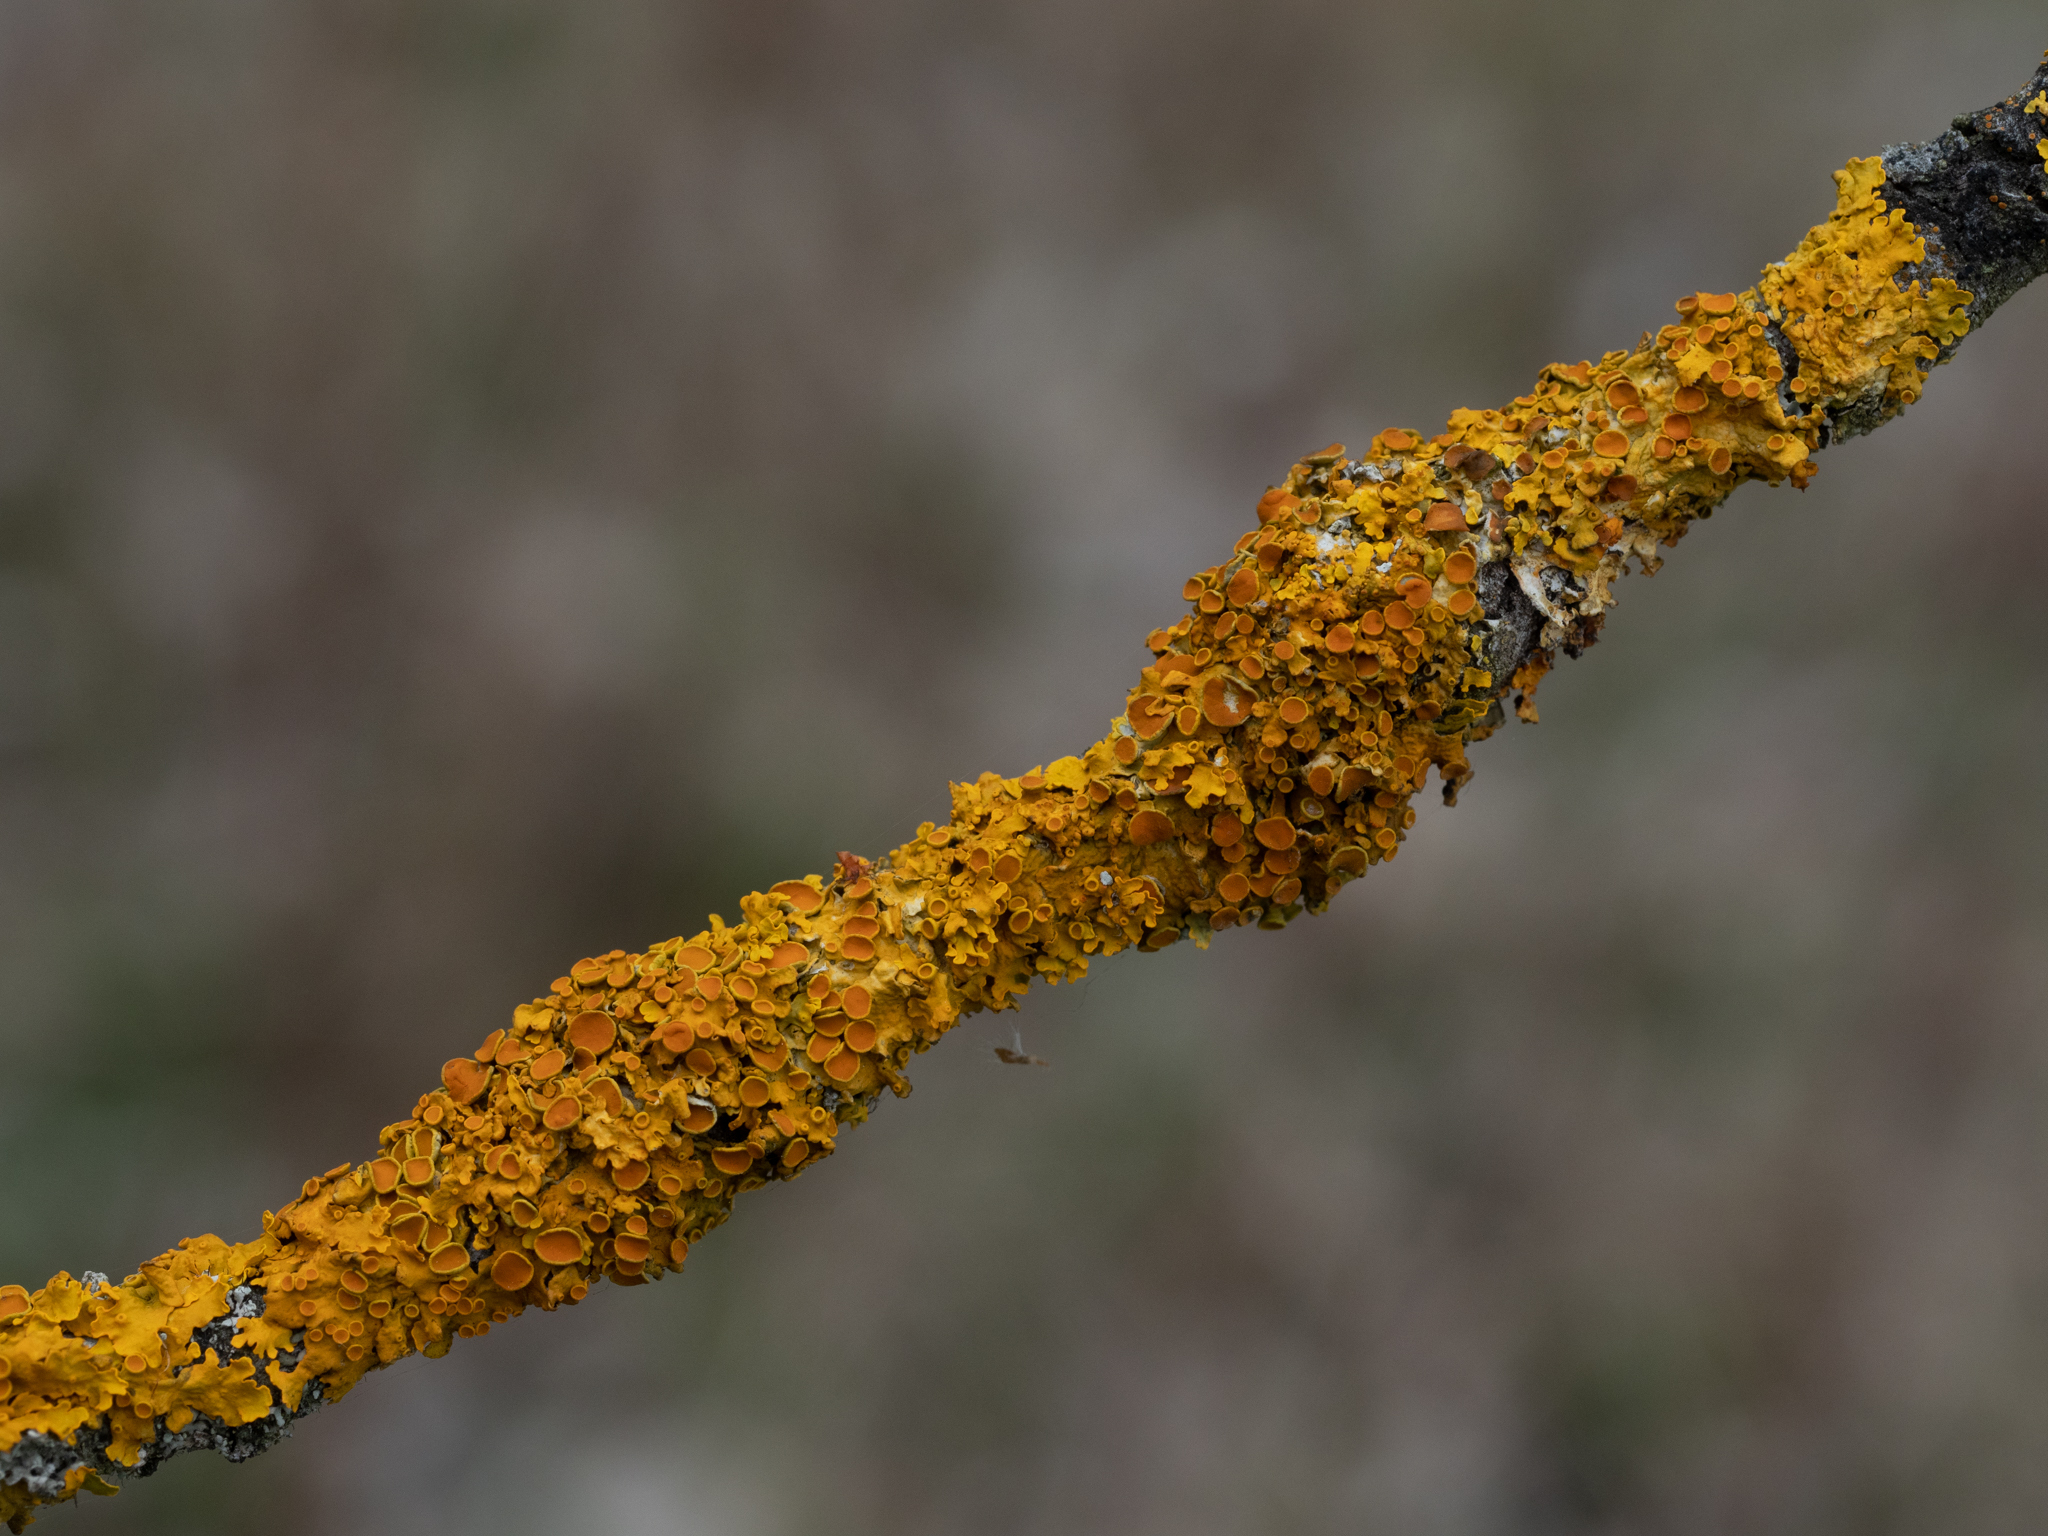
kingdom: Fungi
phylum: Ascomycota
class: Lecanoromycetes
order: Teloschistales
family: Teloschistaceae
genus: Xanthoria
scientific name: Xanthoria parietina
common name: Common orange lichen
